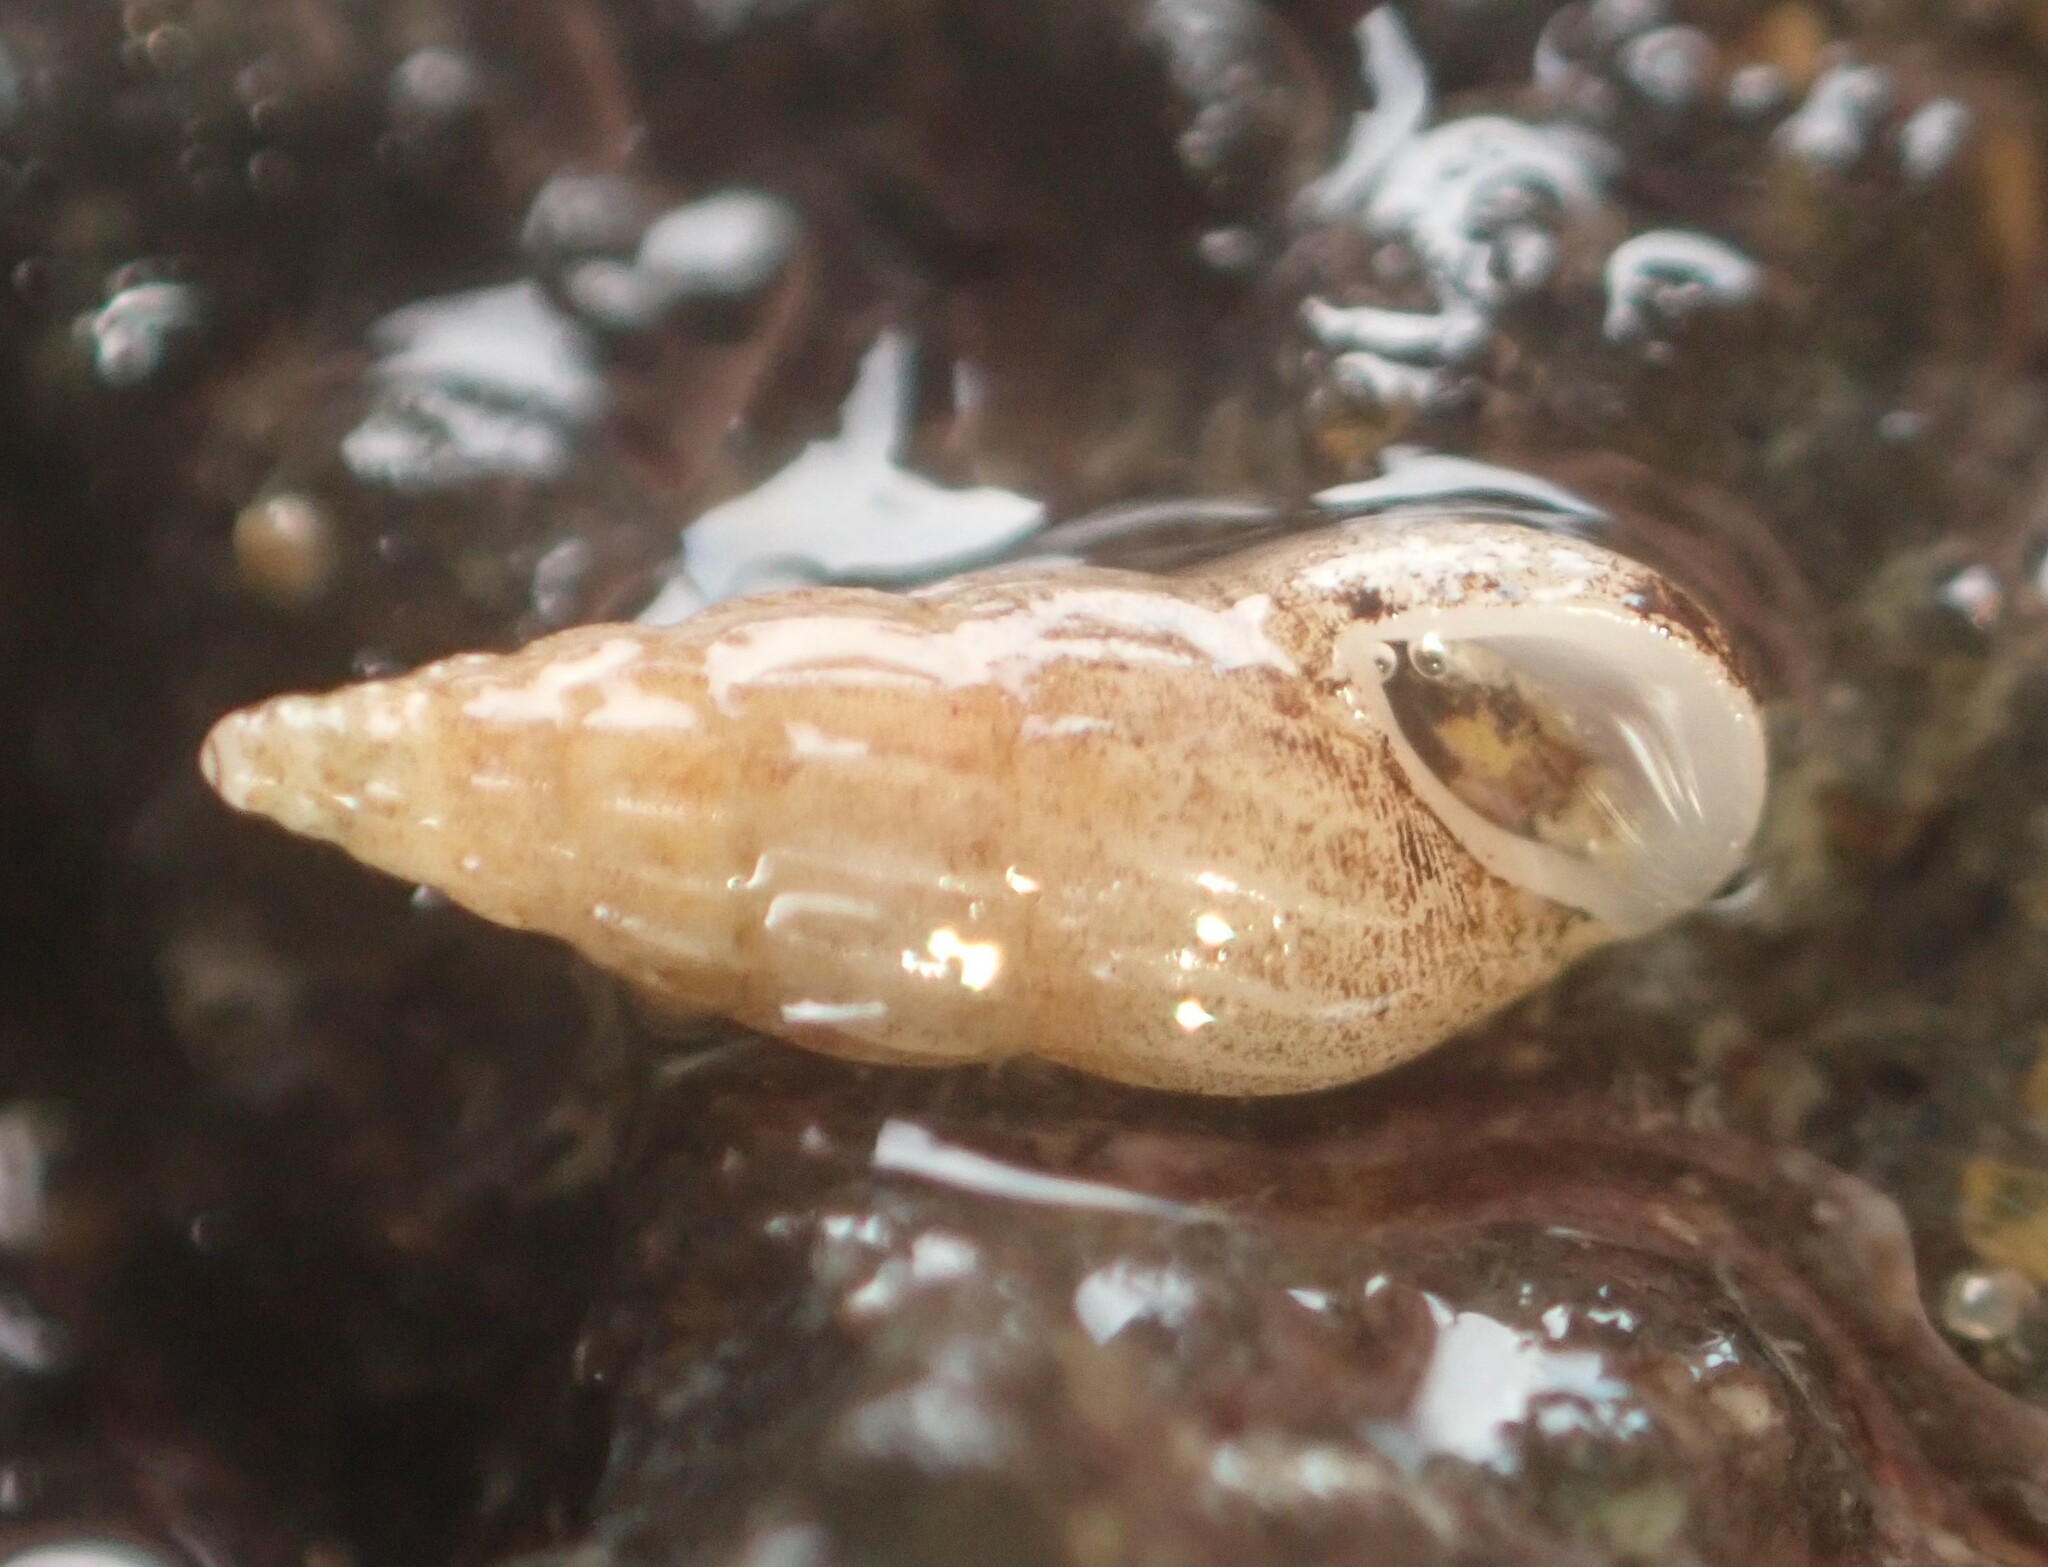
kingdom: Animalia
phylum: Mollusca
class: Gastropoda
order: Littorinimorpha
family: Rissoinidae
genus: Rissoina
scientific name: Rissoina chathamensis
